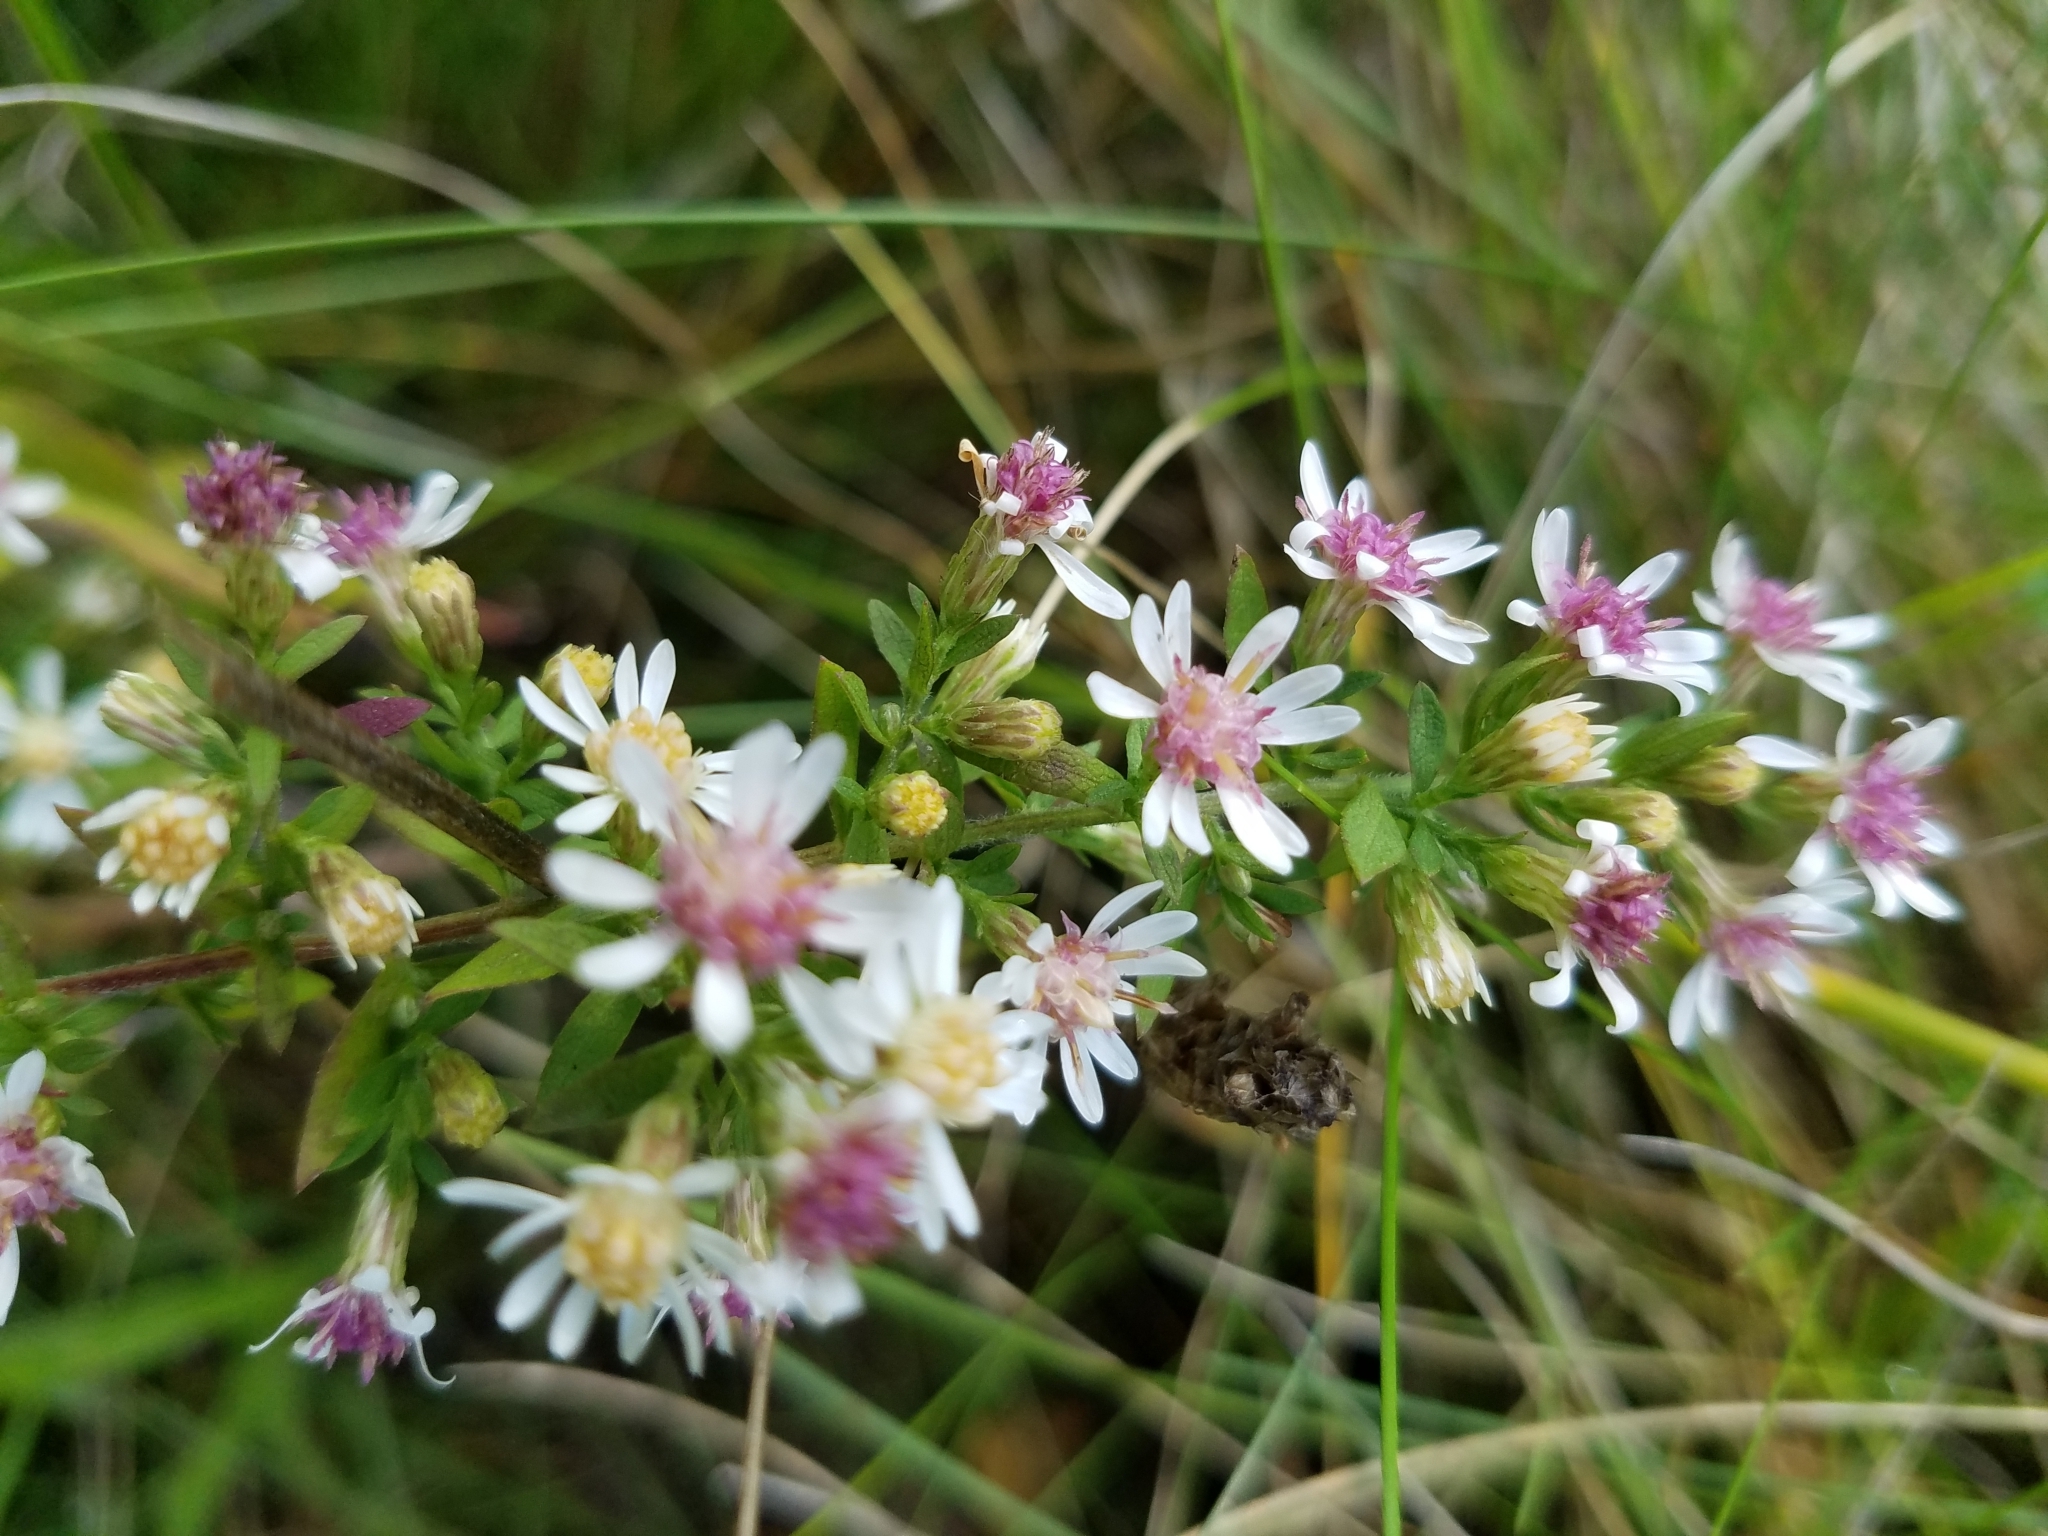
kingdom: Plantae
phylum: Tracheophyta
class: Magnoliopsida
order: Asterales
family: Asteraceae
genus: Symphyotrichum
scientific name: Symphyotrichum lateriflorum
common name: Calico aster
